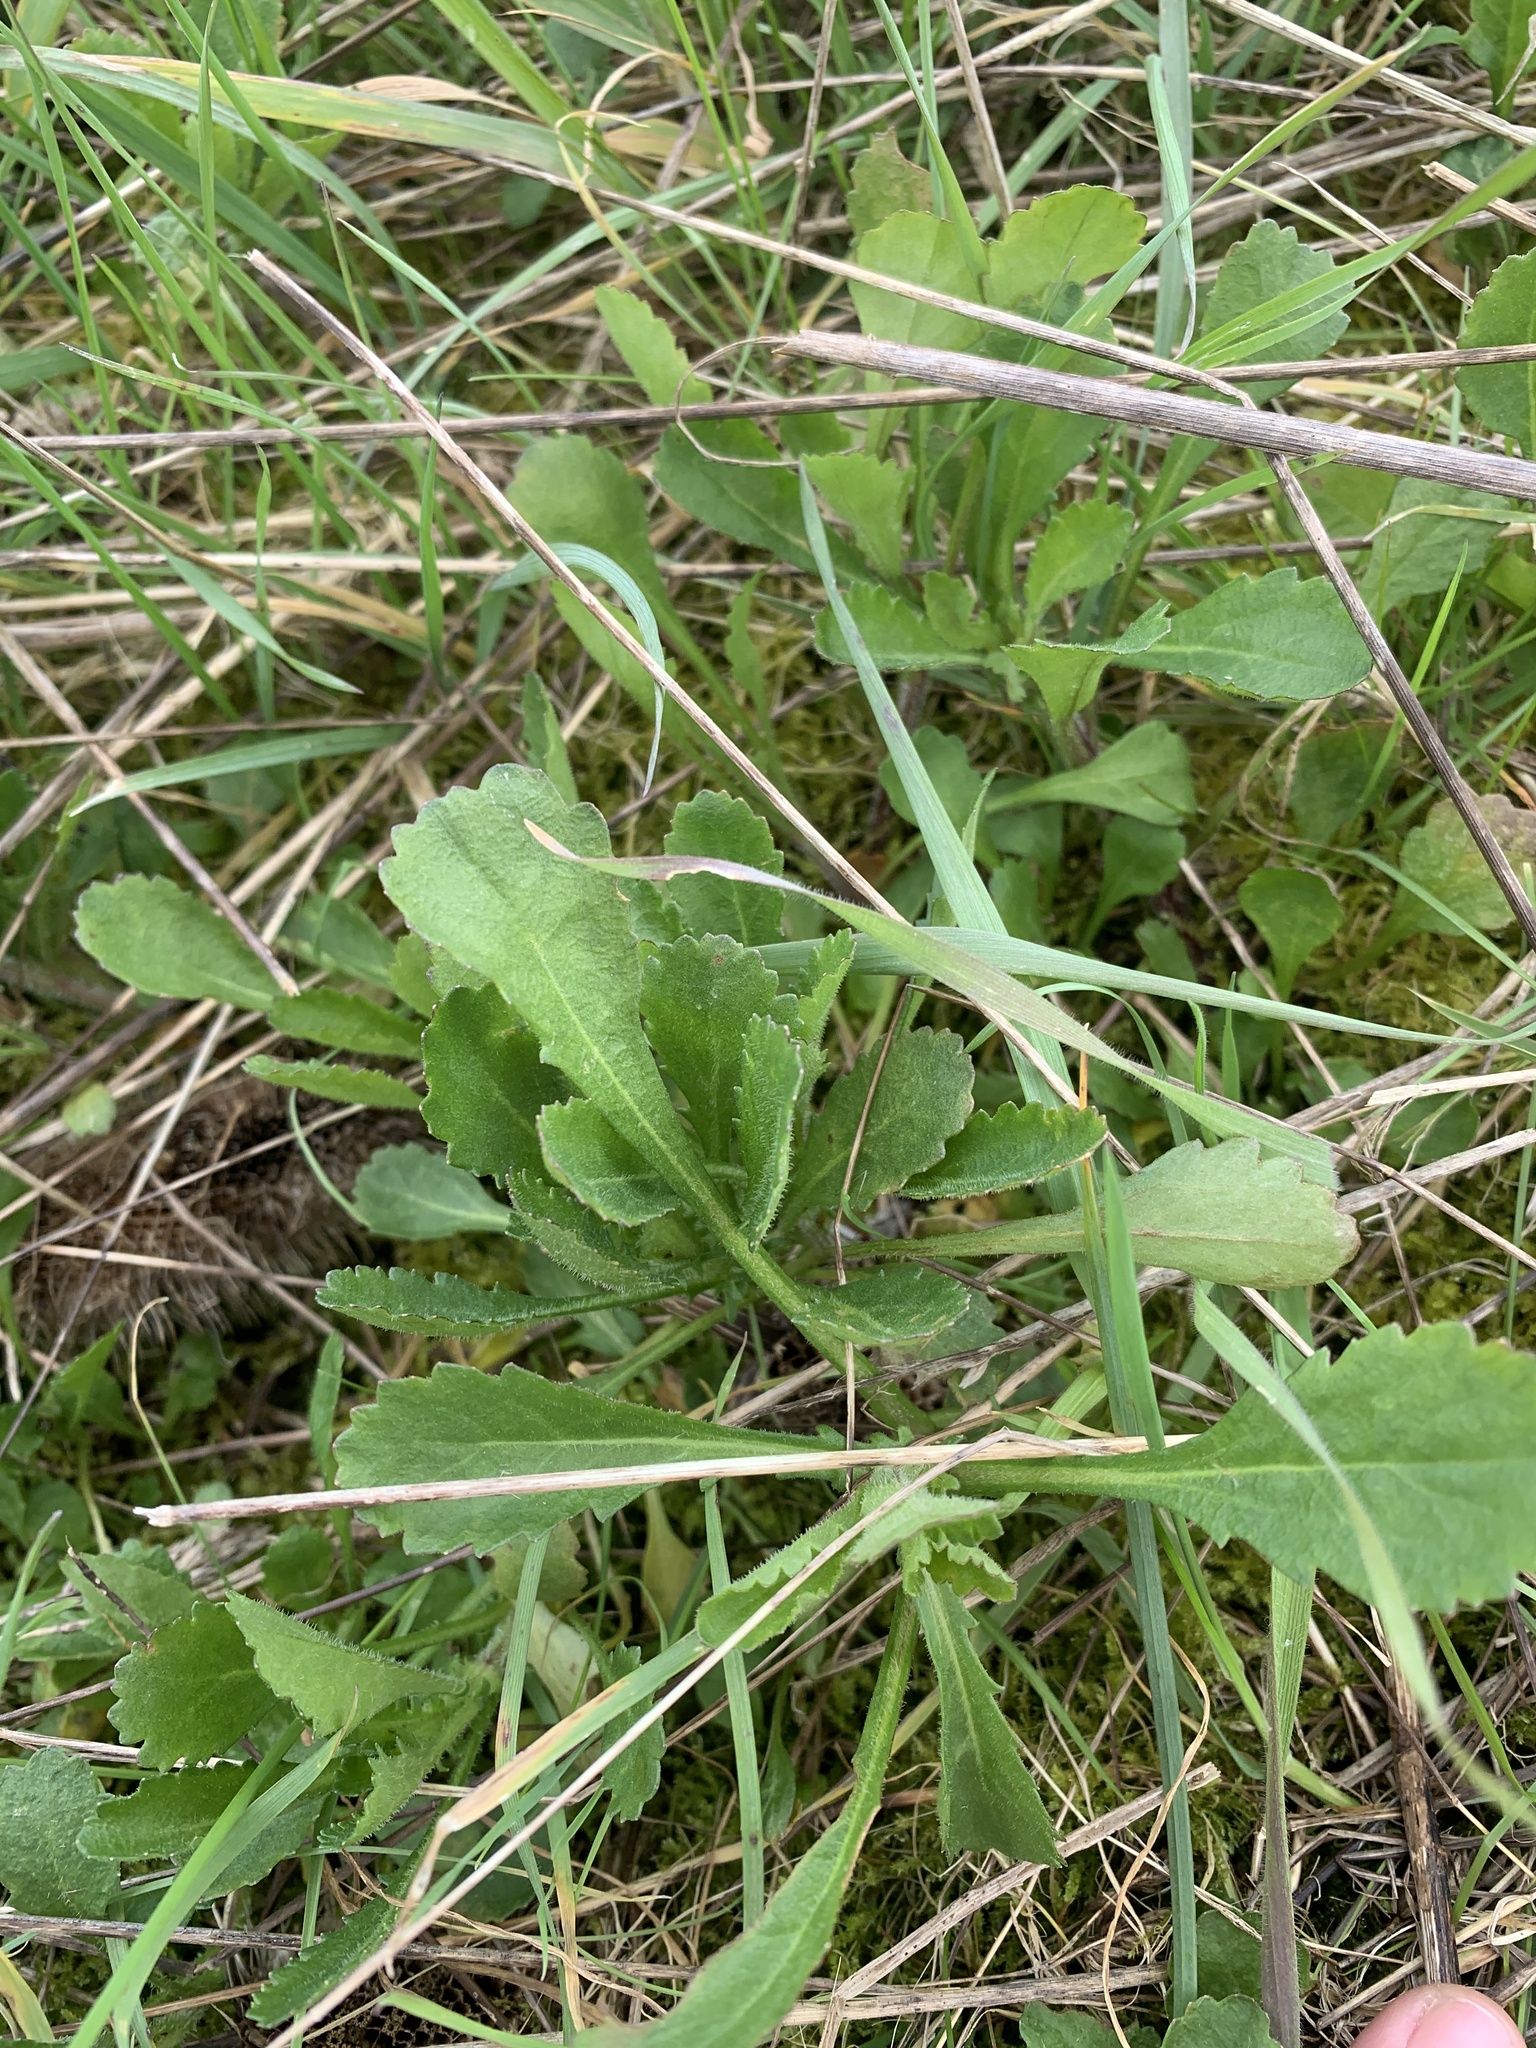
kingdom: Plantae
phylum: Tracheophyta
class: Magnoliopsida
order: Asterales
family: Asteraceae
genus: Leucanthemum
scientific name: Leucanthemum vulgare
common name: Oxeye daisy
